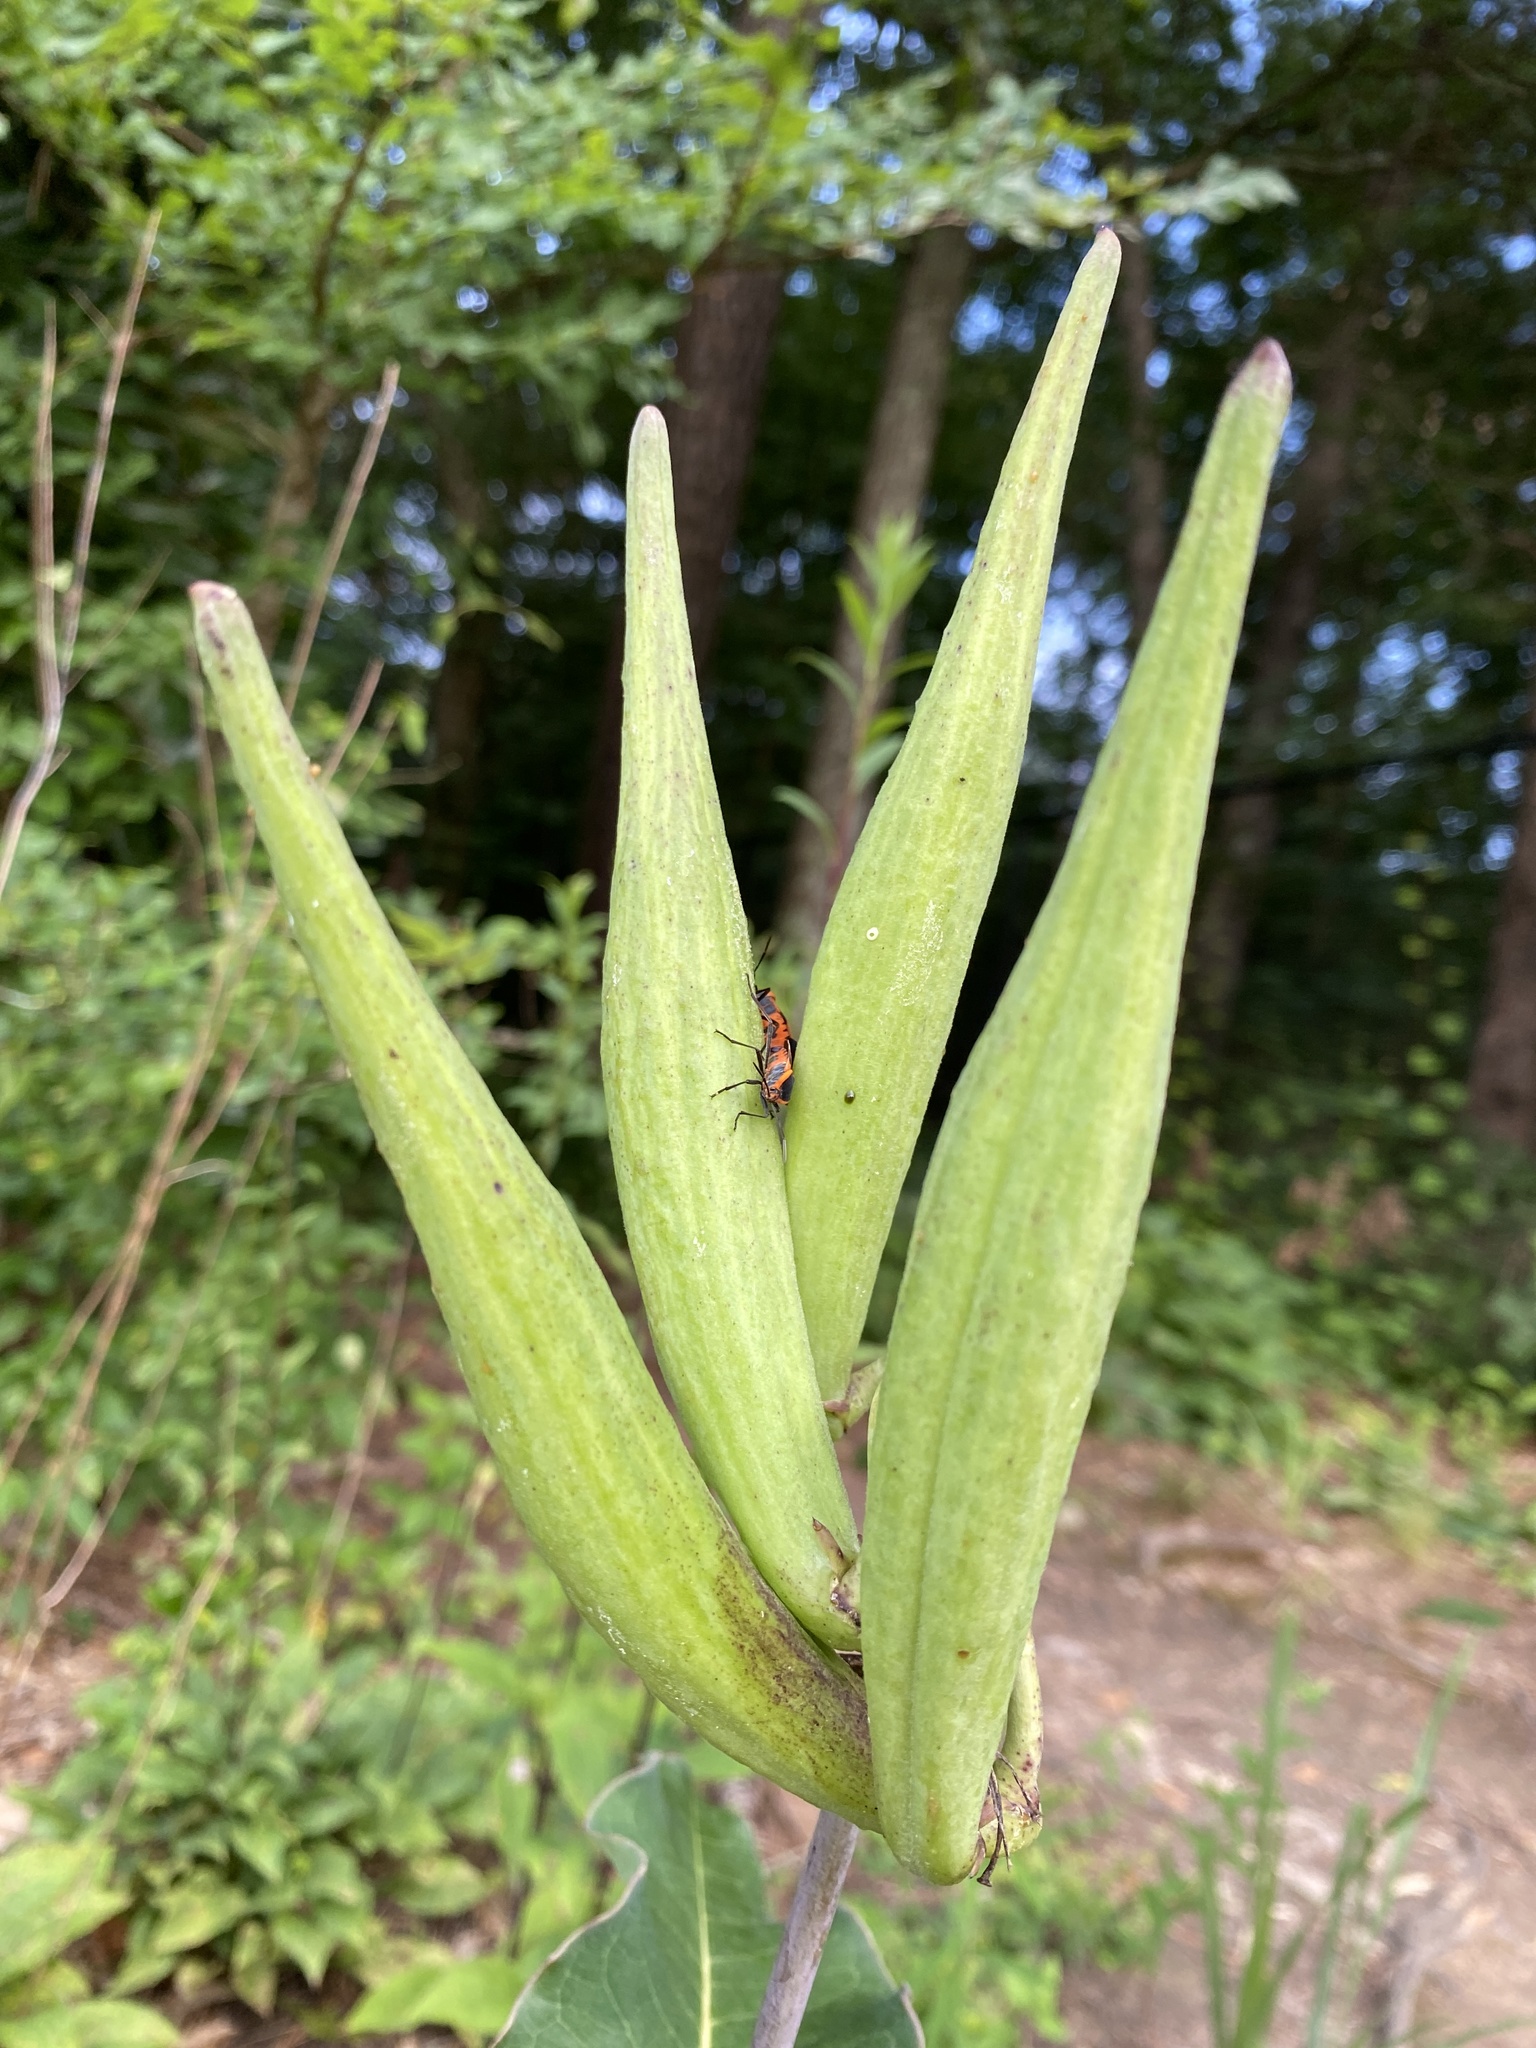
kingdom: Plantae
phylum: Tracheophyta
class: Magnoliopsida
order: Gentianales
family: Apocynaceae
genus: Asclepias
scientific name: Asclepias amplexicaulis
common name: Blunt-leaf milkweed
